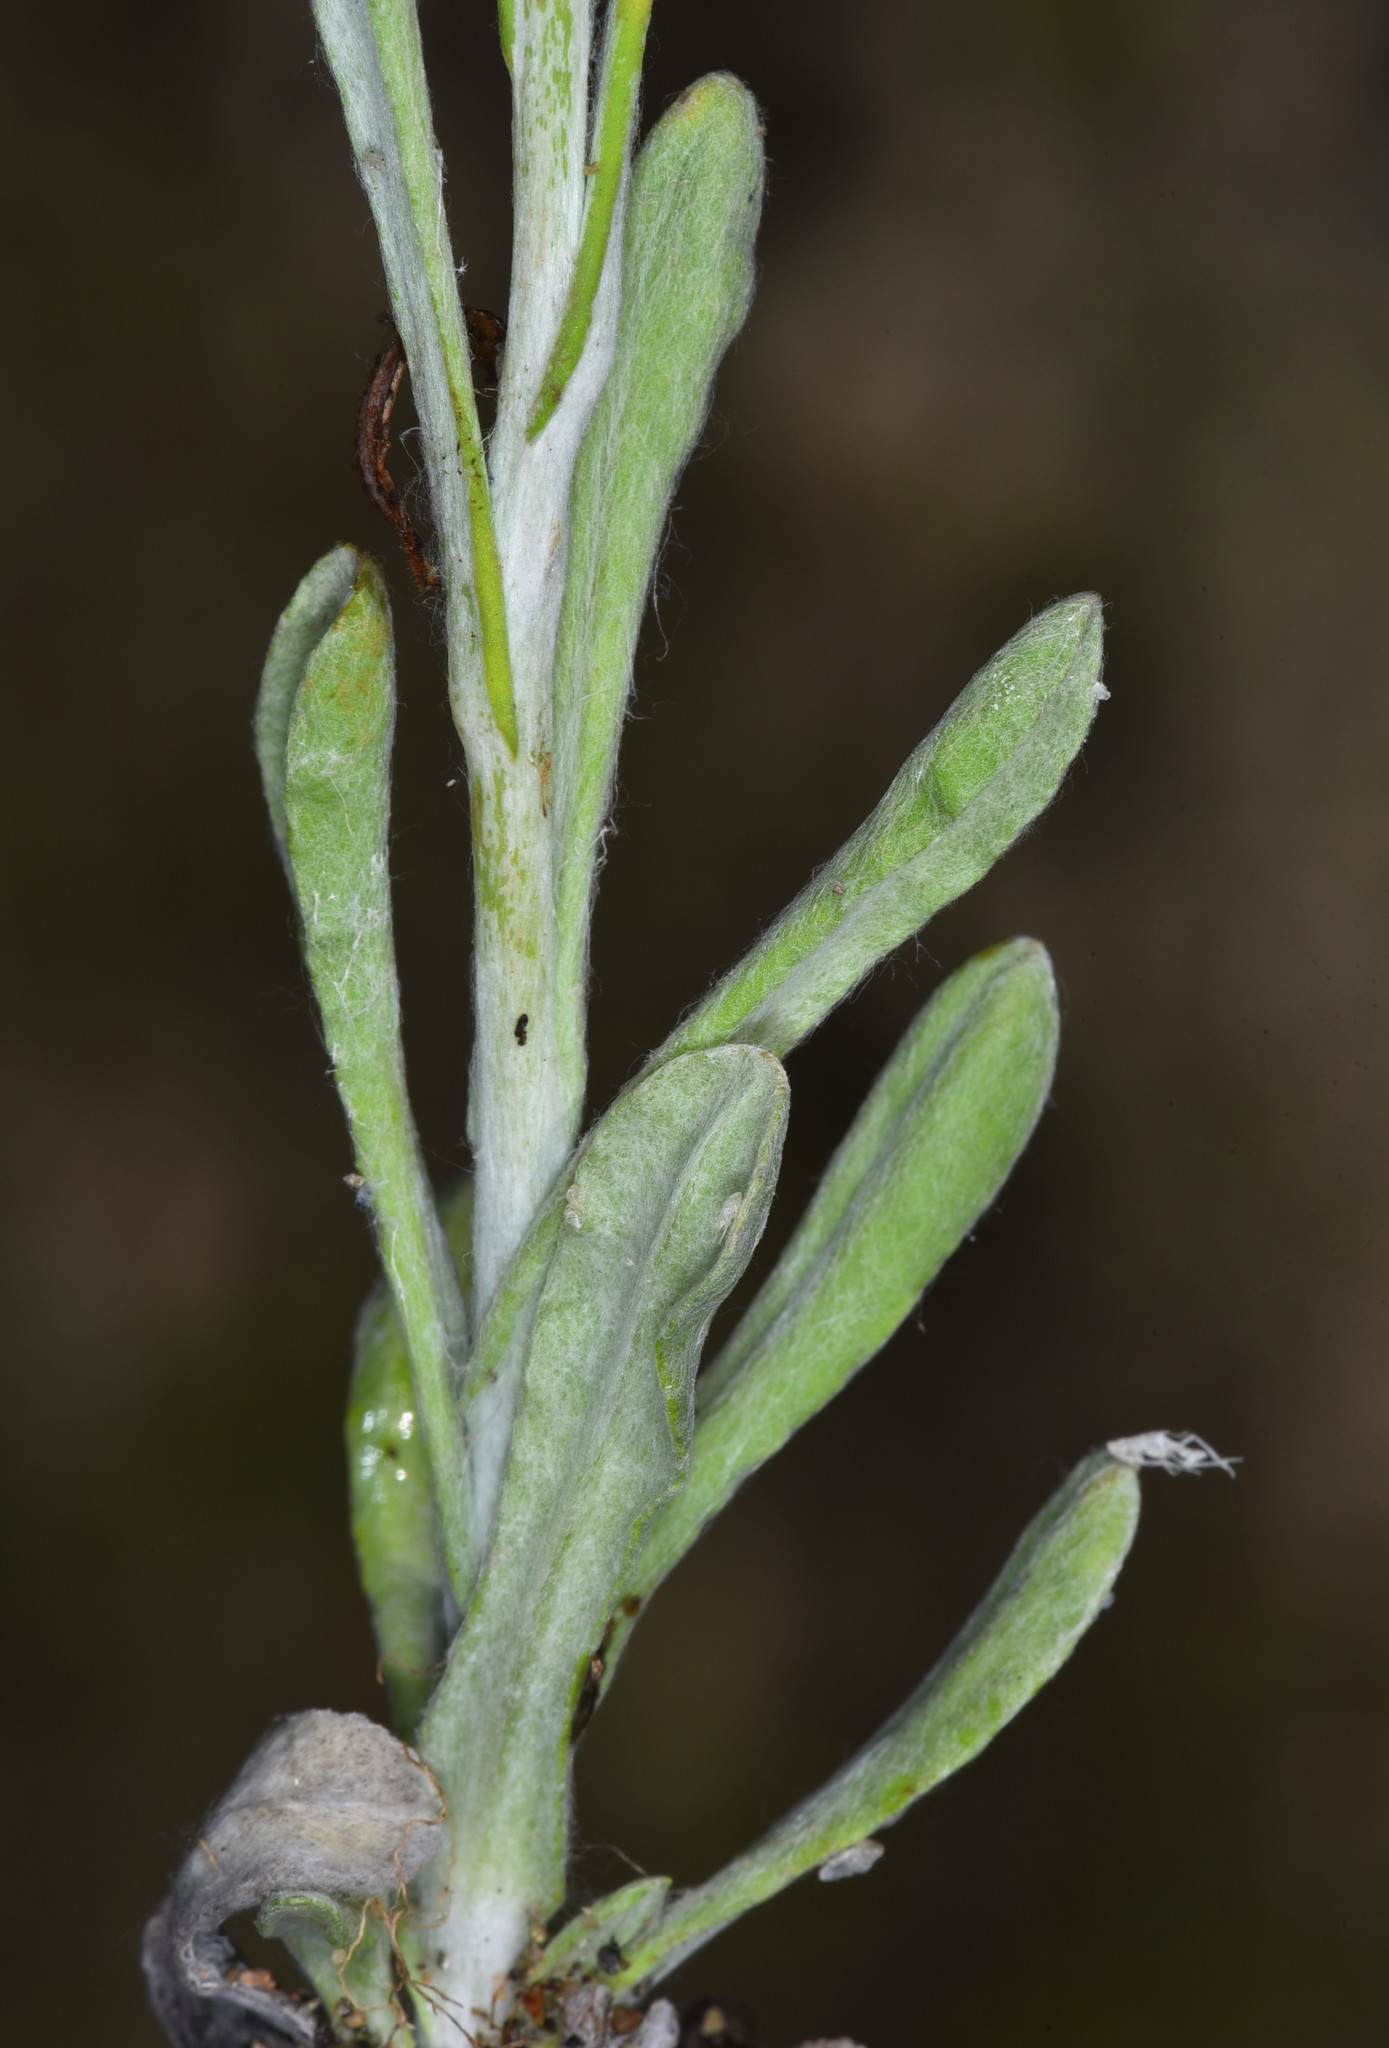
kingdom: Plantae
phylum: Tracheophyta
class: Magnoliopsida
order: Asterales
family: Asteraceae
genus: Gnaphalium
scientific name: Gnaphalium palustre
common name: Western marsh cudweed
